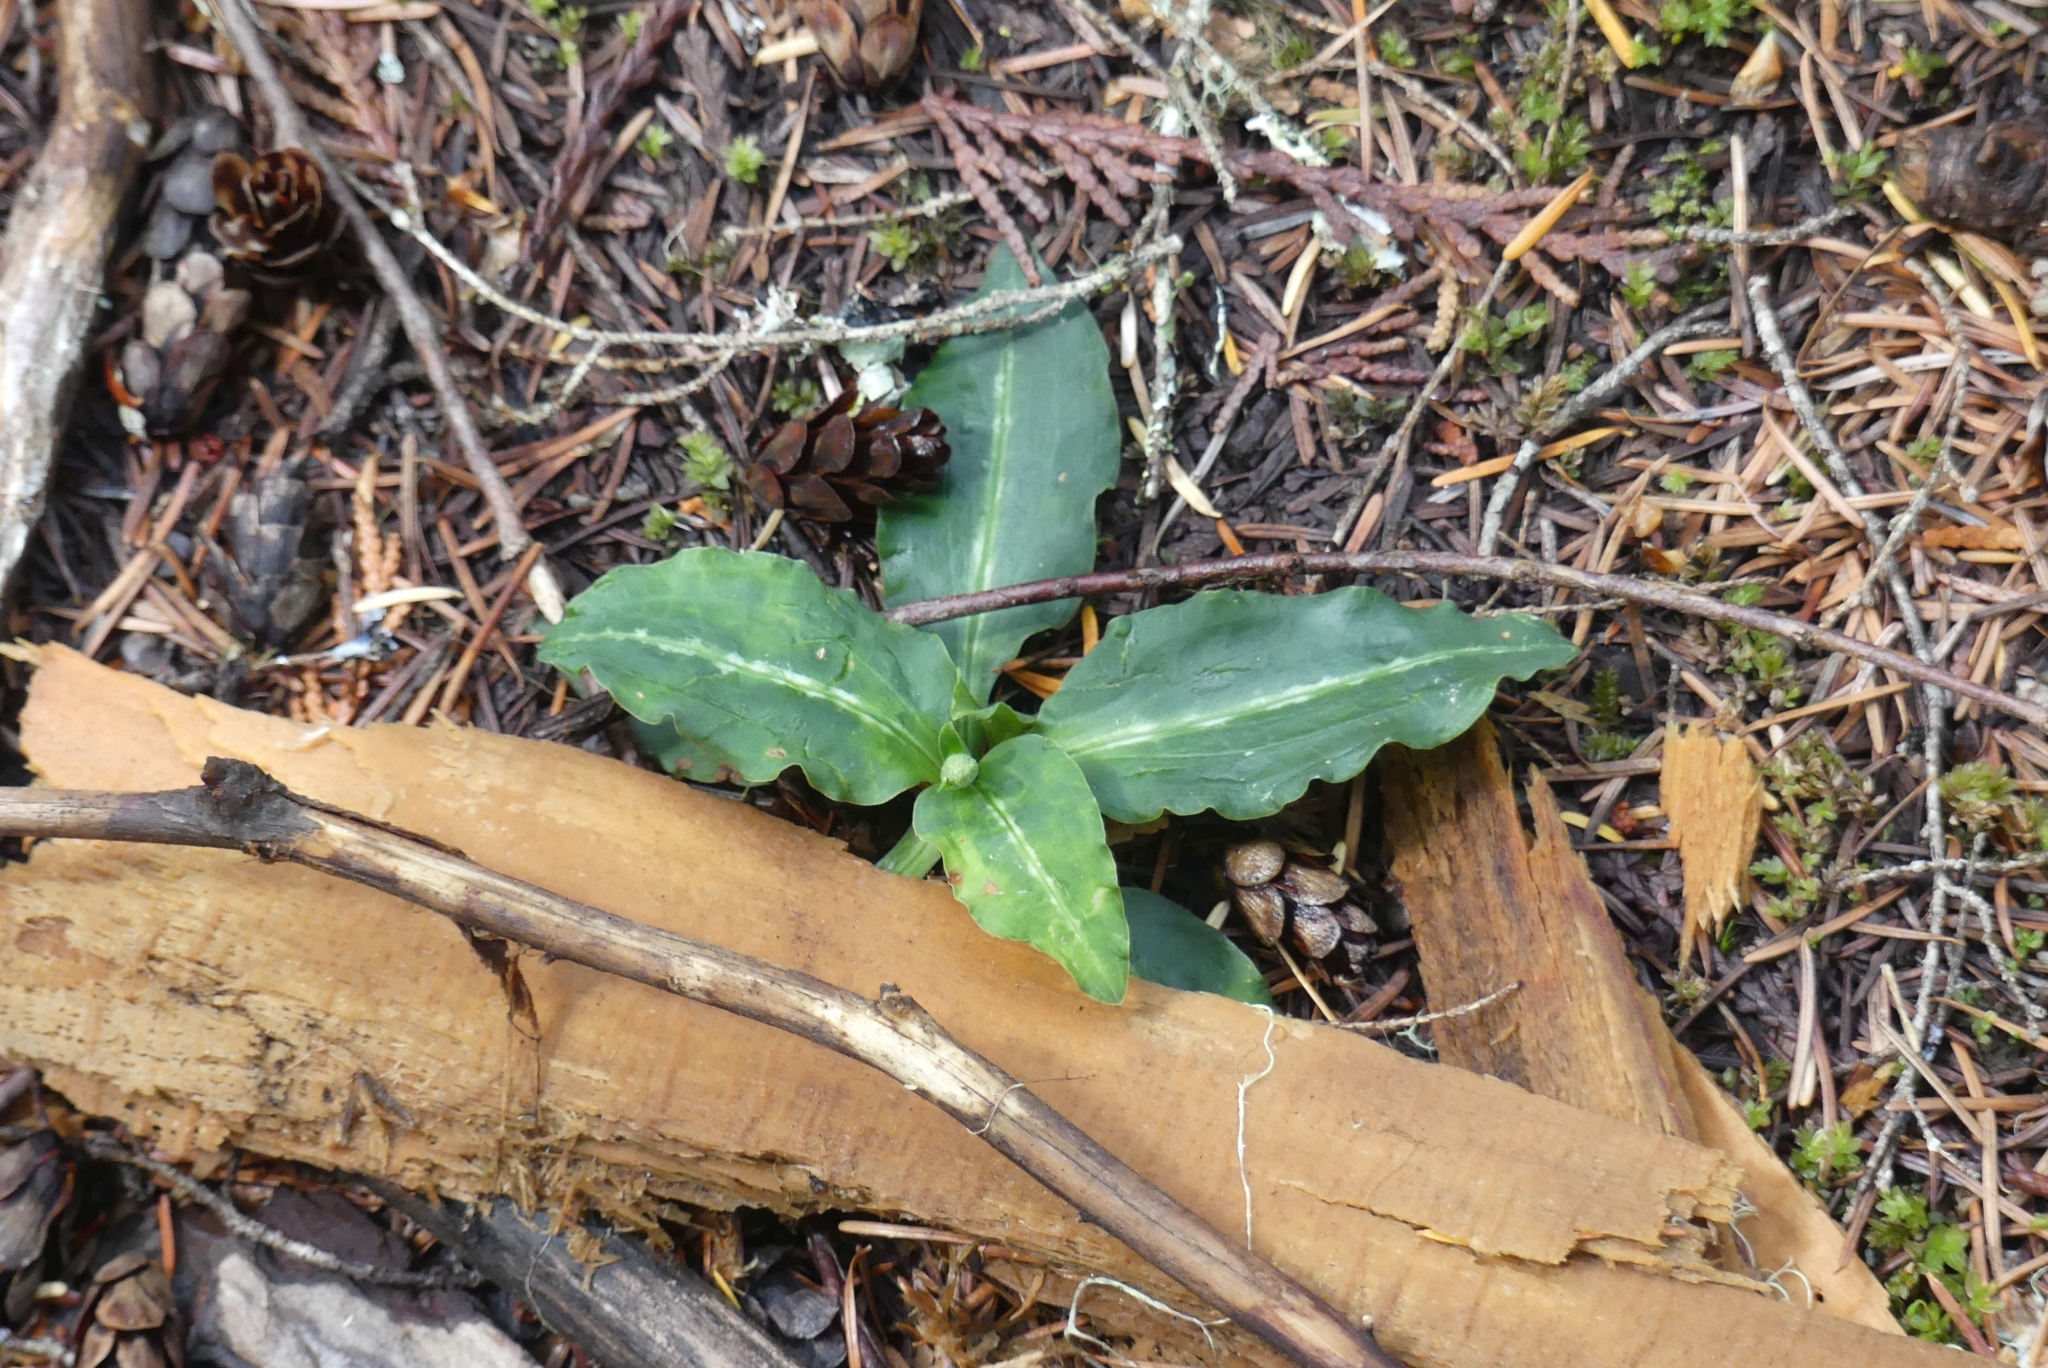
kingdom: Plantae
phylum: Tracheophyta
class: Liliopsida
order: Asparagales
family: Orchidaceae
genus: Goodyera
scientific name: Goodyera oblongifolia
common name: Giant rattlesnake-plantain
